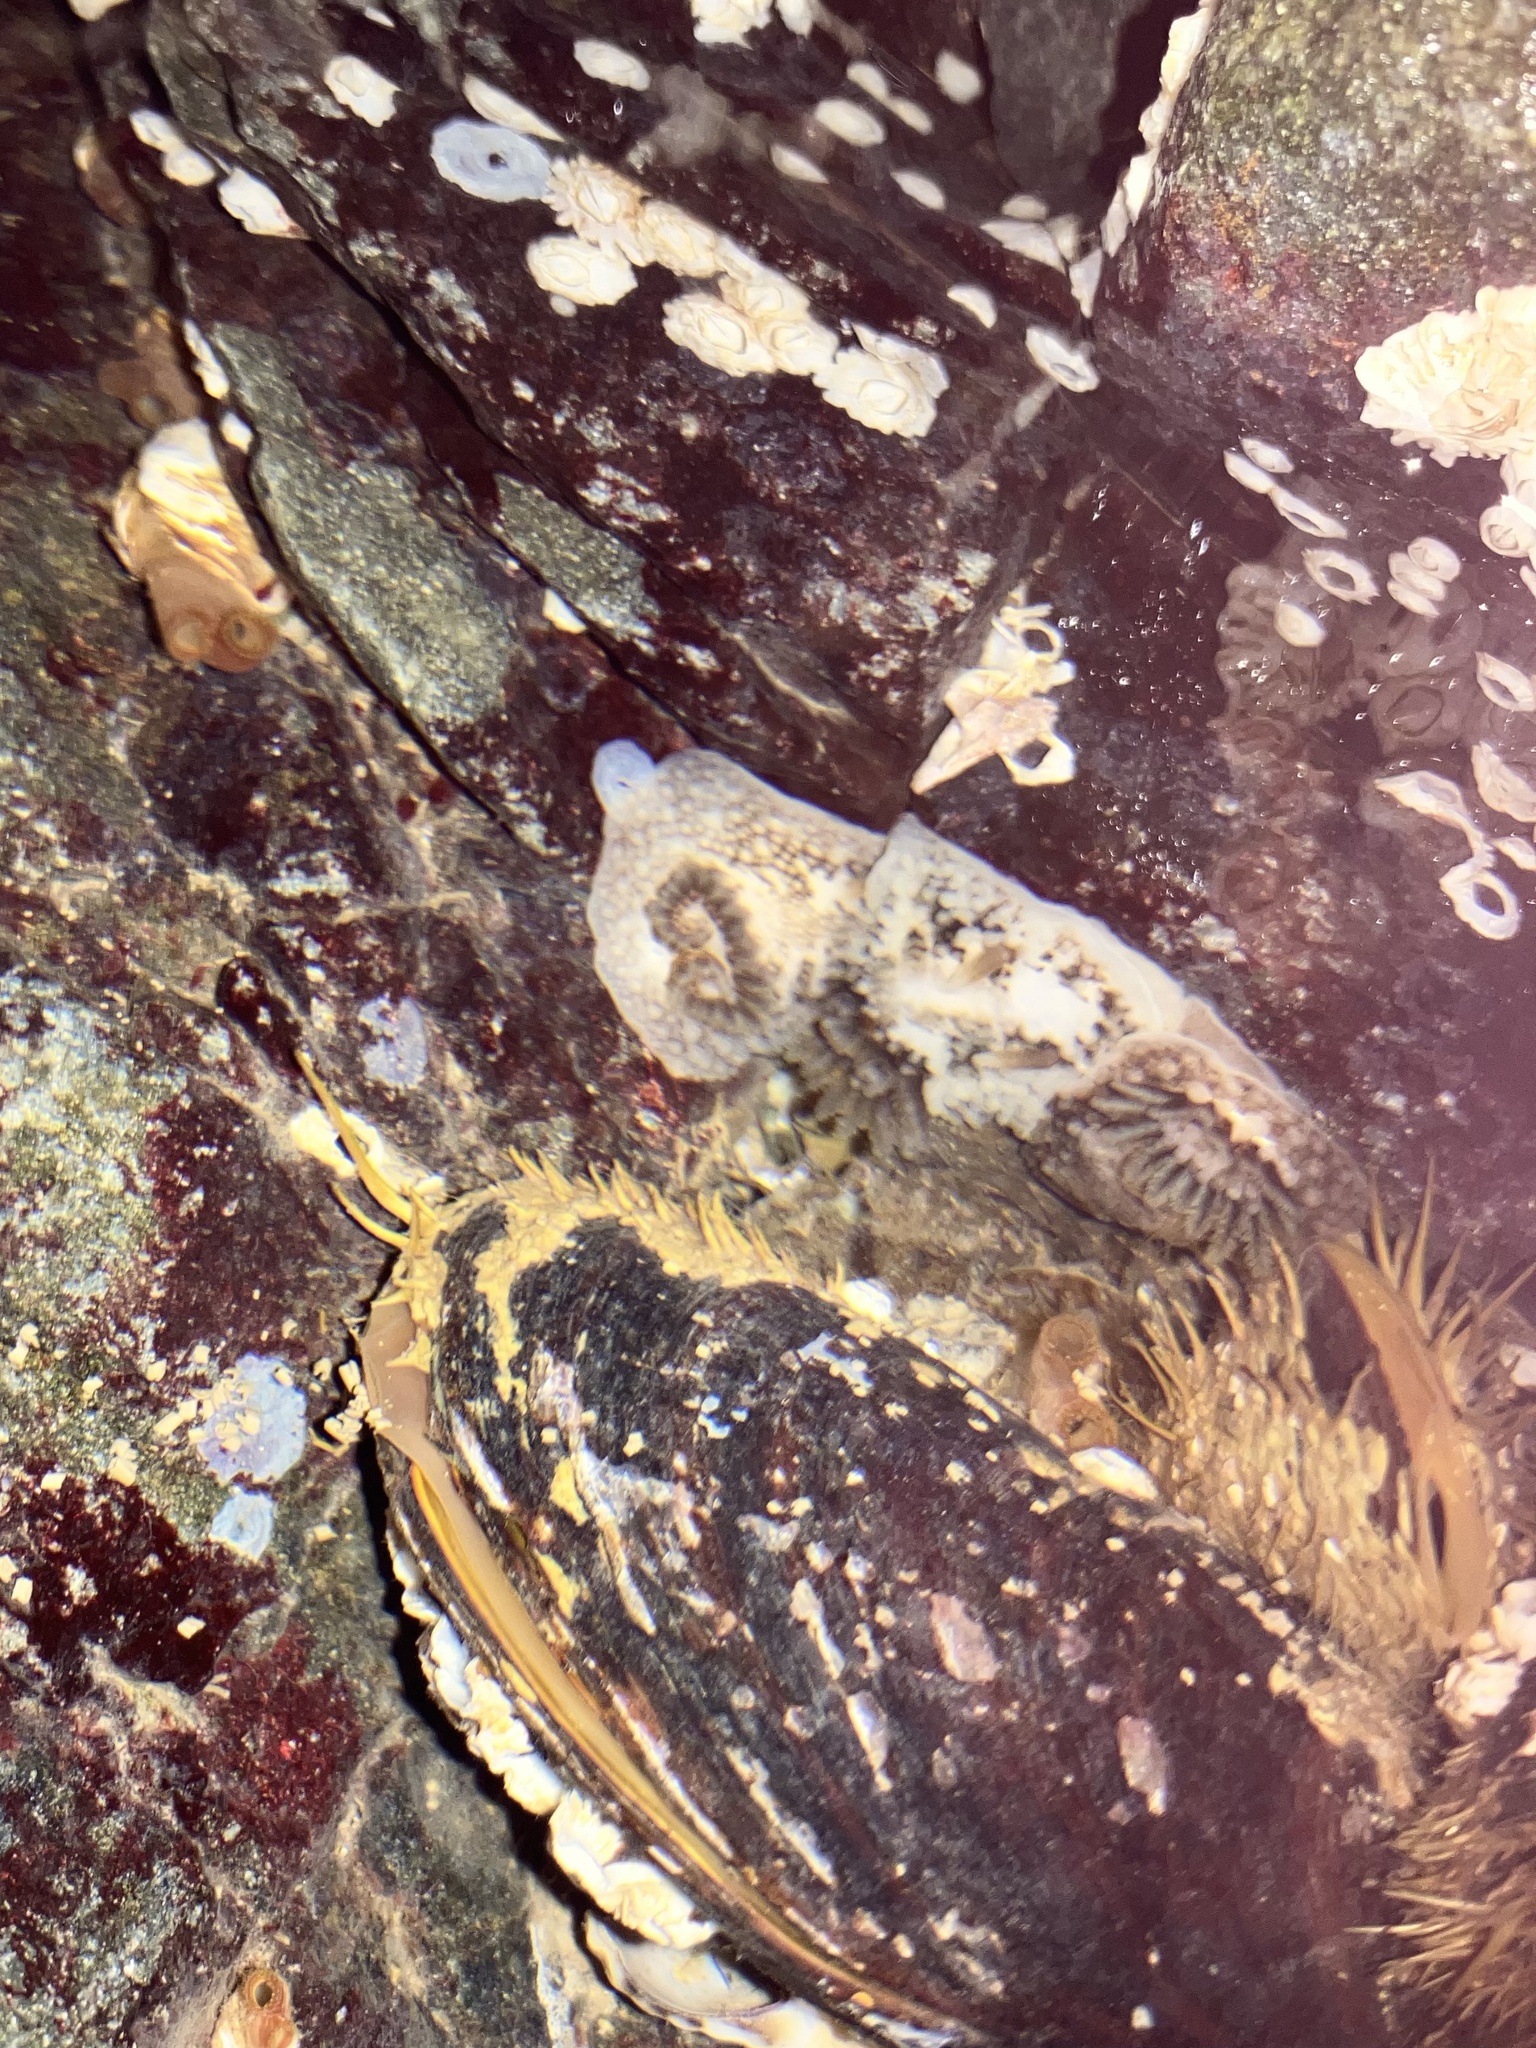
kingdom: Animalia
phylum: Mollusca
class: Gastropoda
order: Nudibranchia
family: Onchidorididae
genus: Onchidoris
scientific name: Onchidoris bilamellata
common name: Barnacle-eating onchidoris
